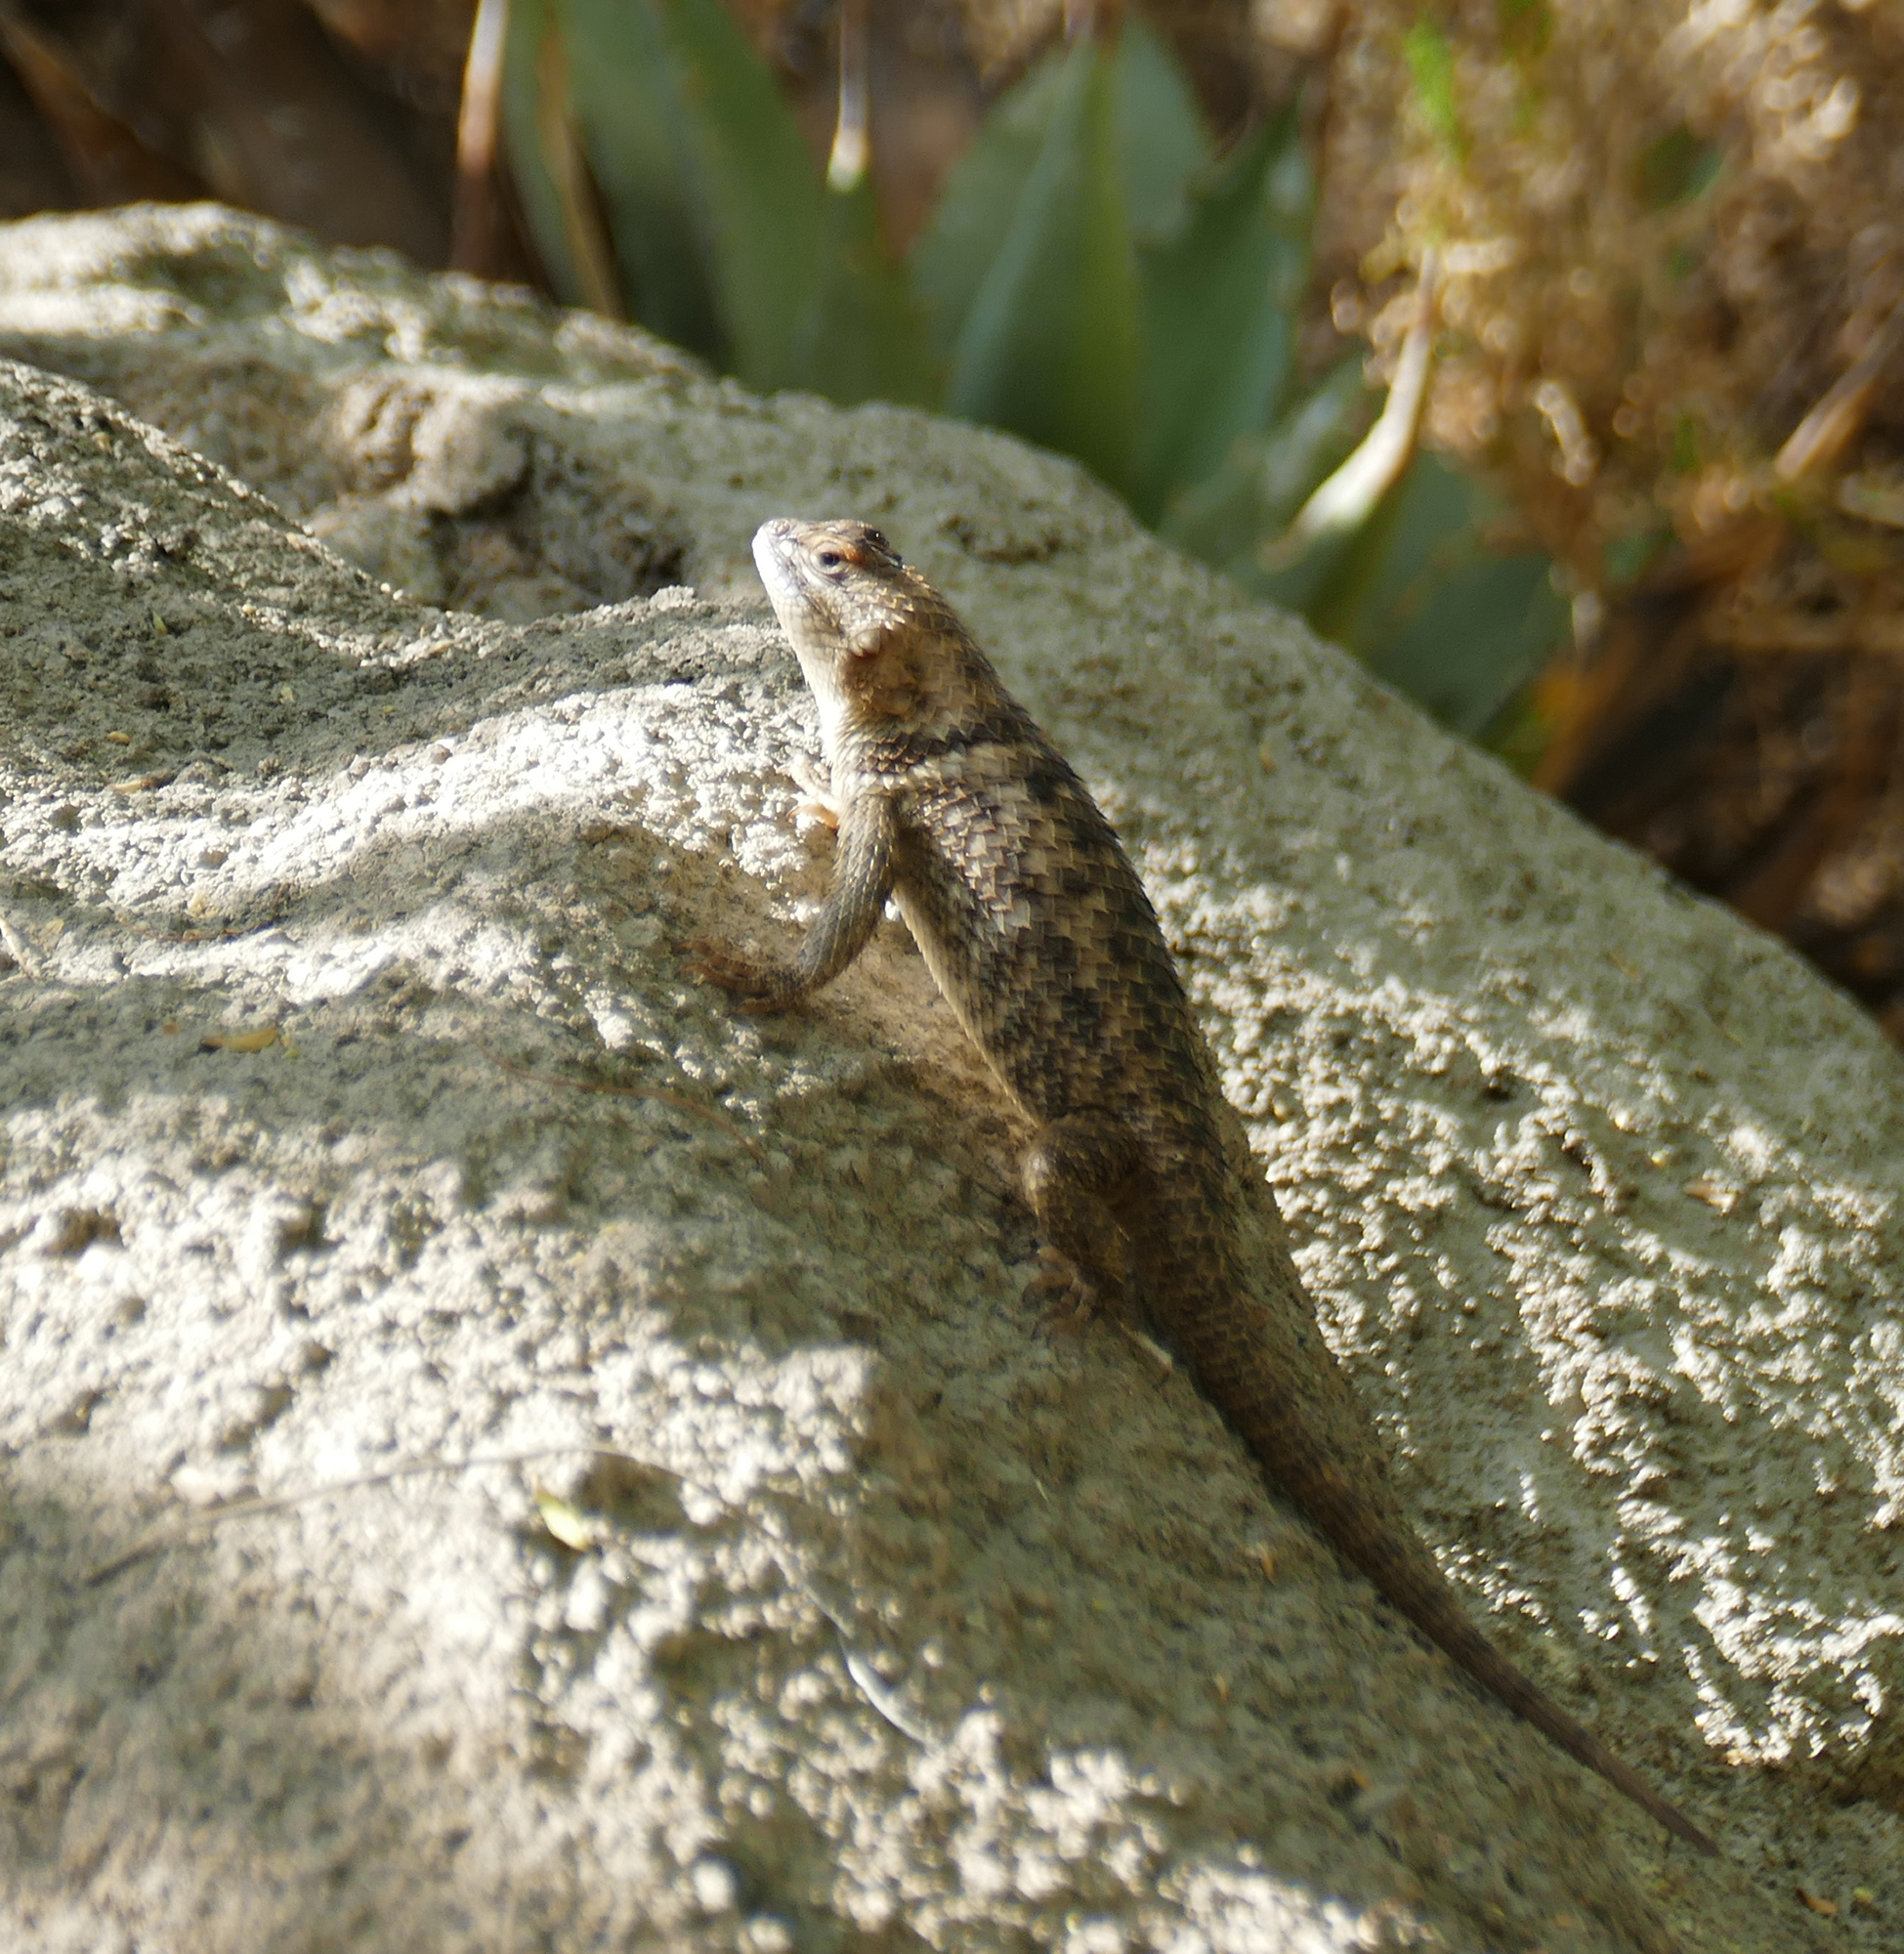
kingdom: Animalia
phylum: Chordata
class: Squamata
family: Phrynosomatidae
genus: Sceloporus
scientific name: Sceloporus magister
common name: Desert spiny lizard
